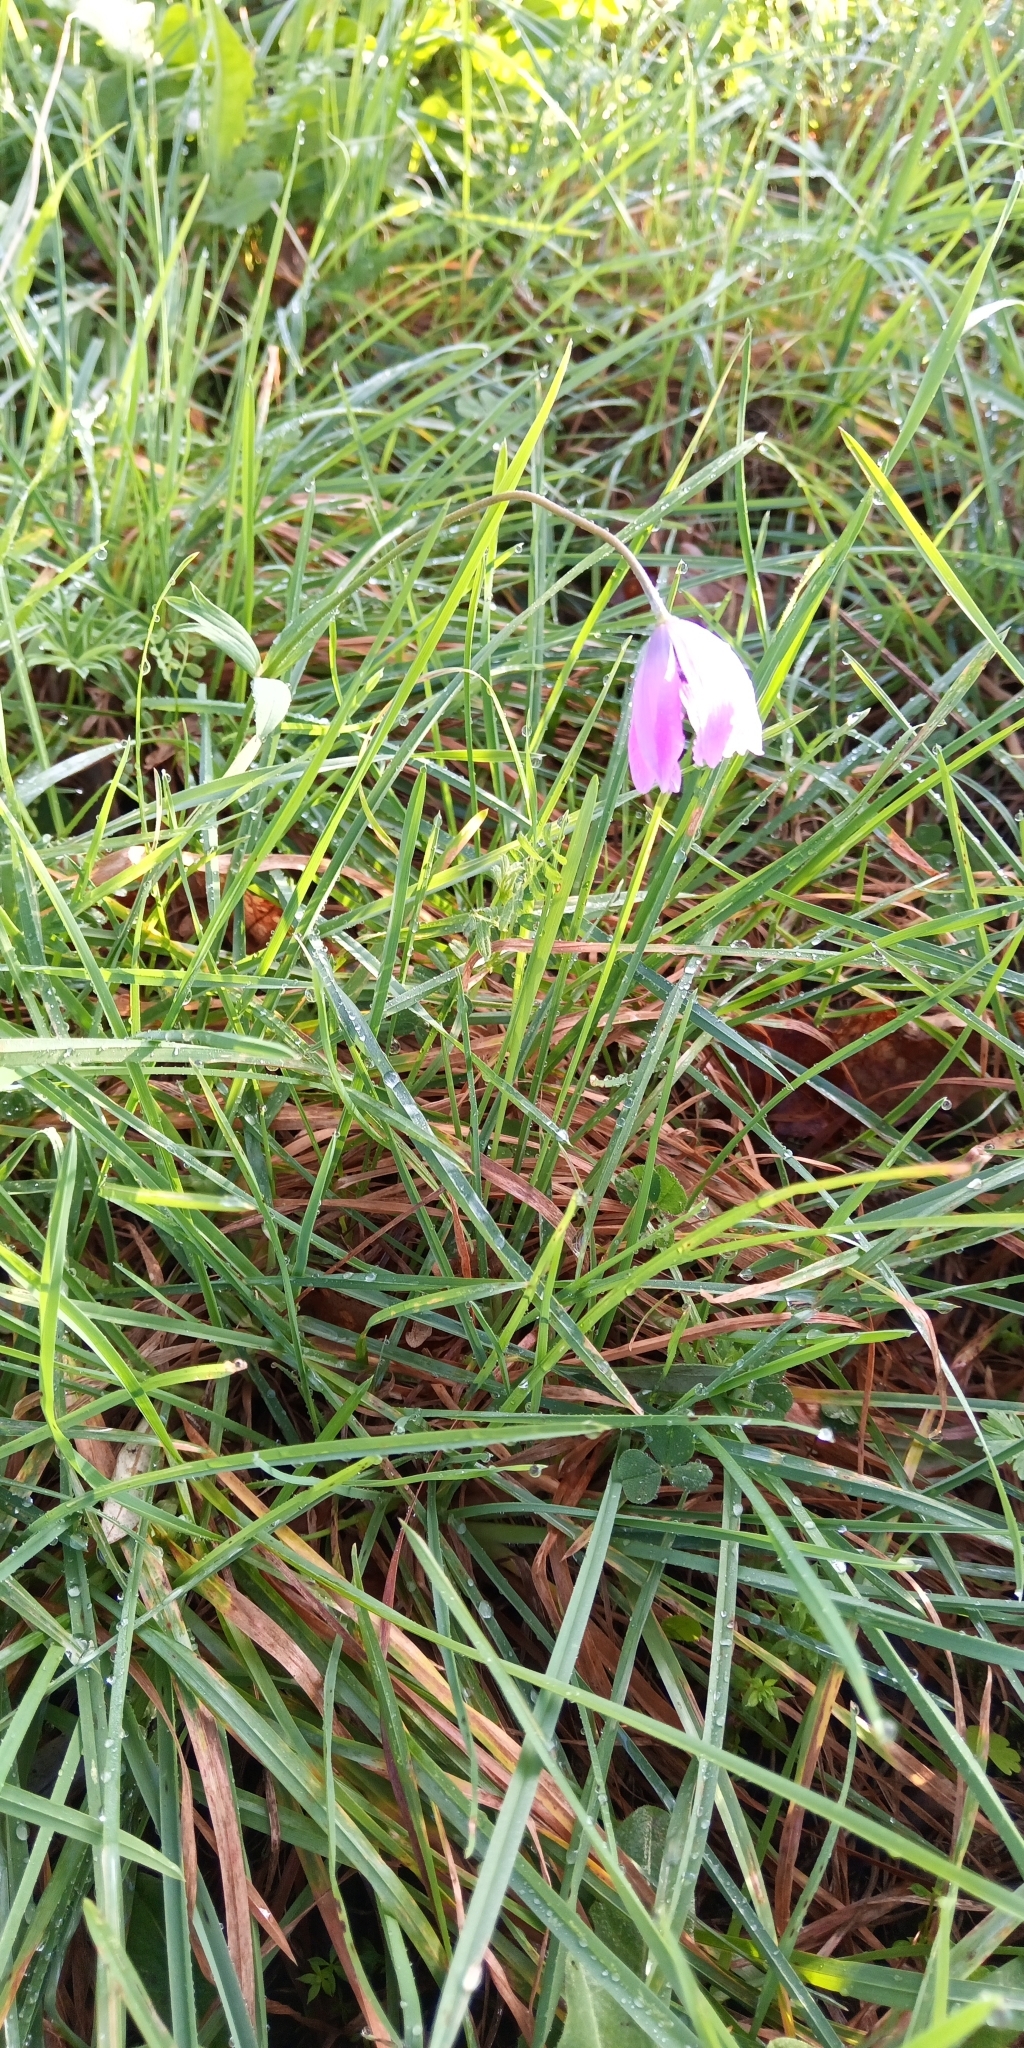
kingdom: Plantae
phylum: Tracheophyta
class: Magnoliopsida
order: Ranunculales
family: Ranunculaceae
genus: Anemone
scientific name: Anemone hortensis
